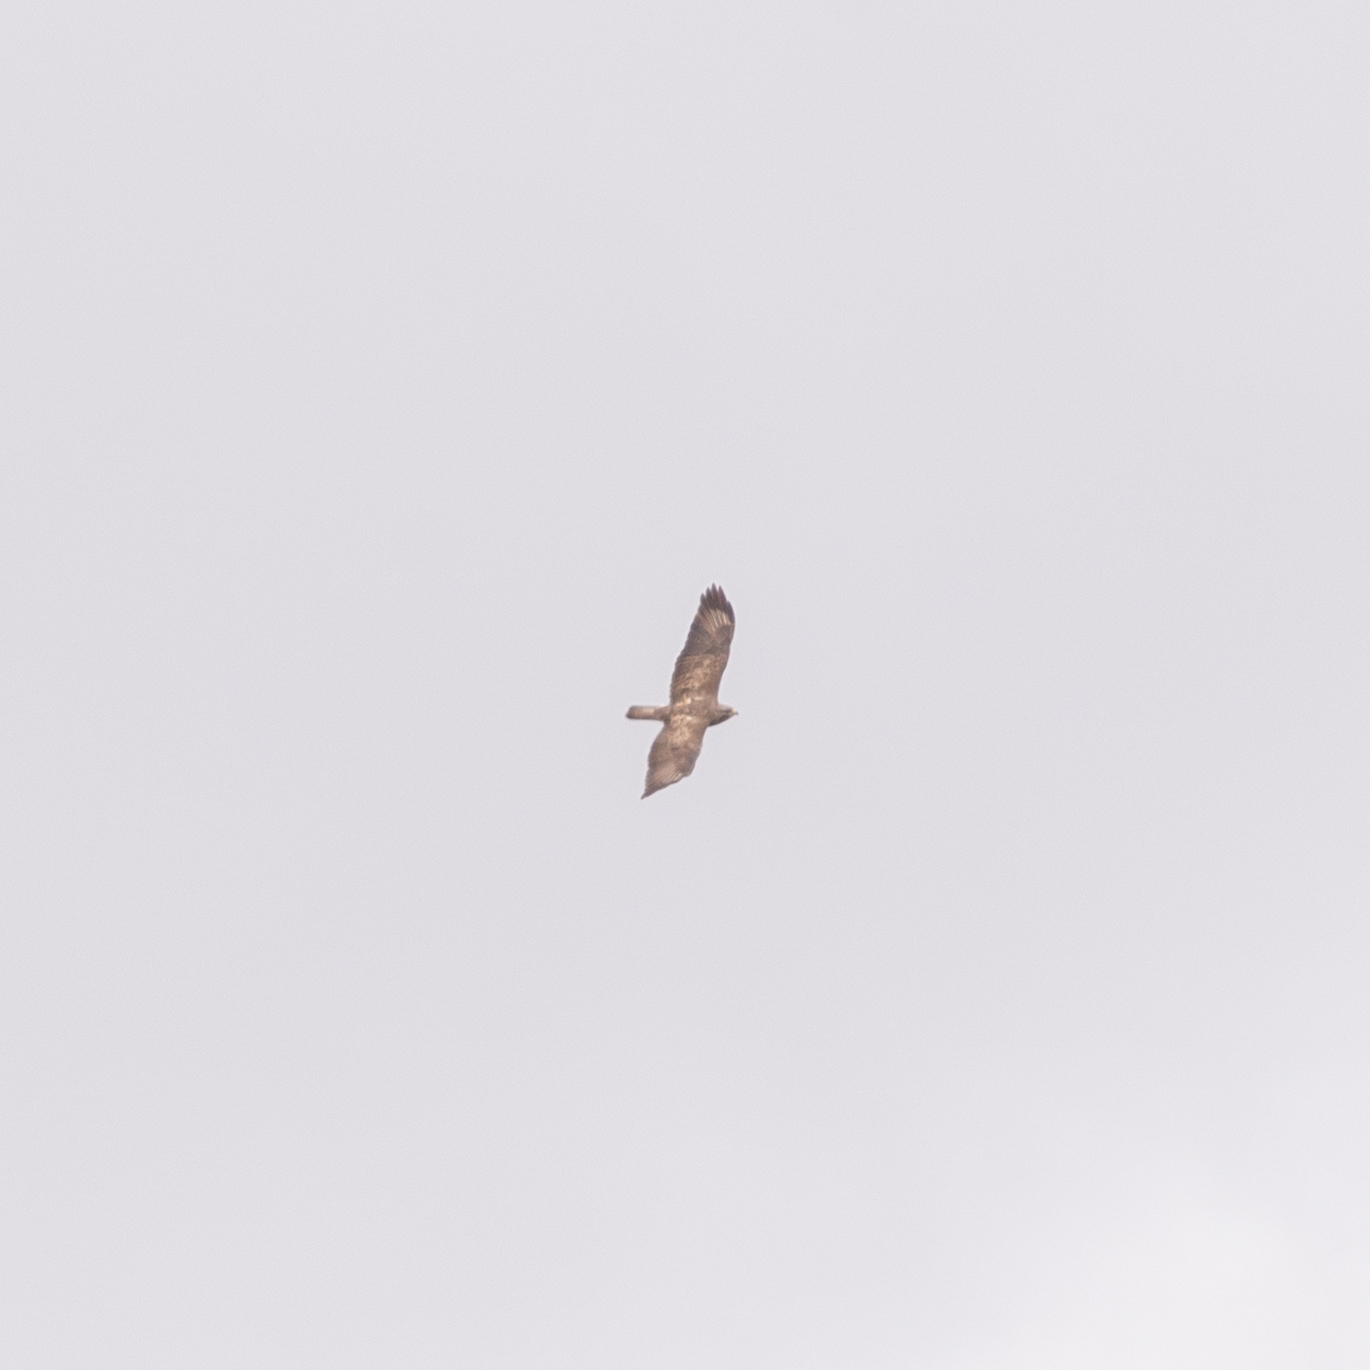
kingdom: Animalia
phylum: Chordata
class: Aves
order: Accipitriformes
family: Accipitridae
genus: Buteo
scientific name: Buteo buteo
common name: Common buzzard
